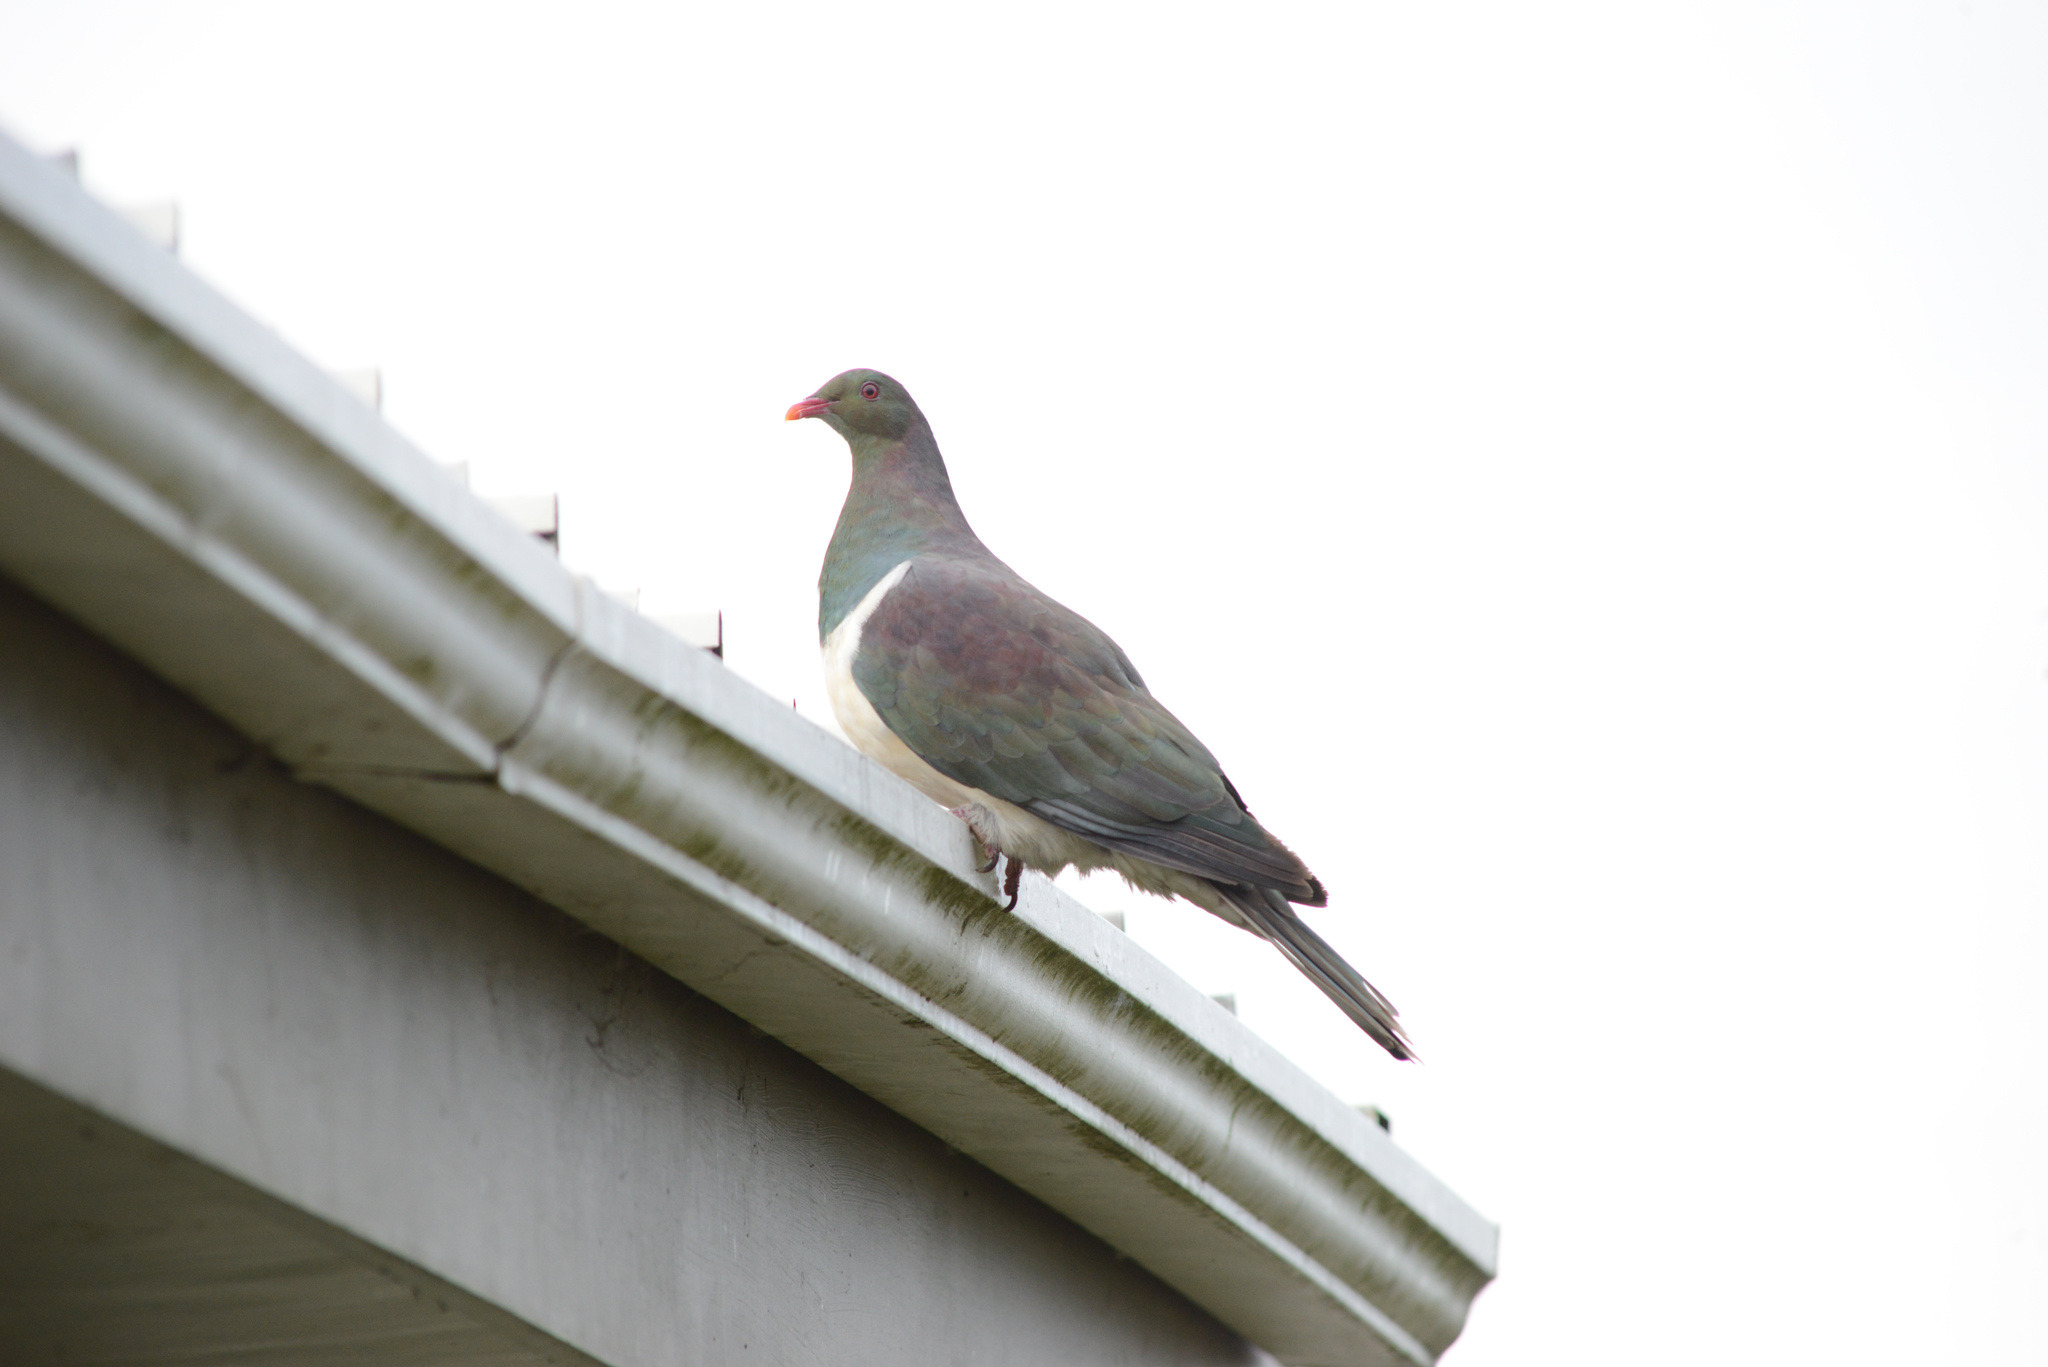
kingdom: Animalia
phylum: Chordata
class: Aves
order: Columbiformes
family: Columbidae
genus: Hemiphaga
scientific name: Hemiphaga novaeseelandiae
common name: New zealand pigeon
